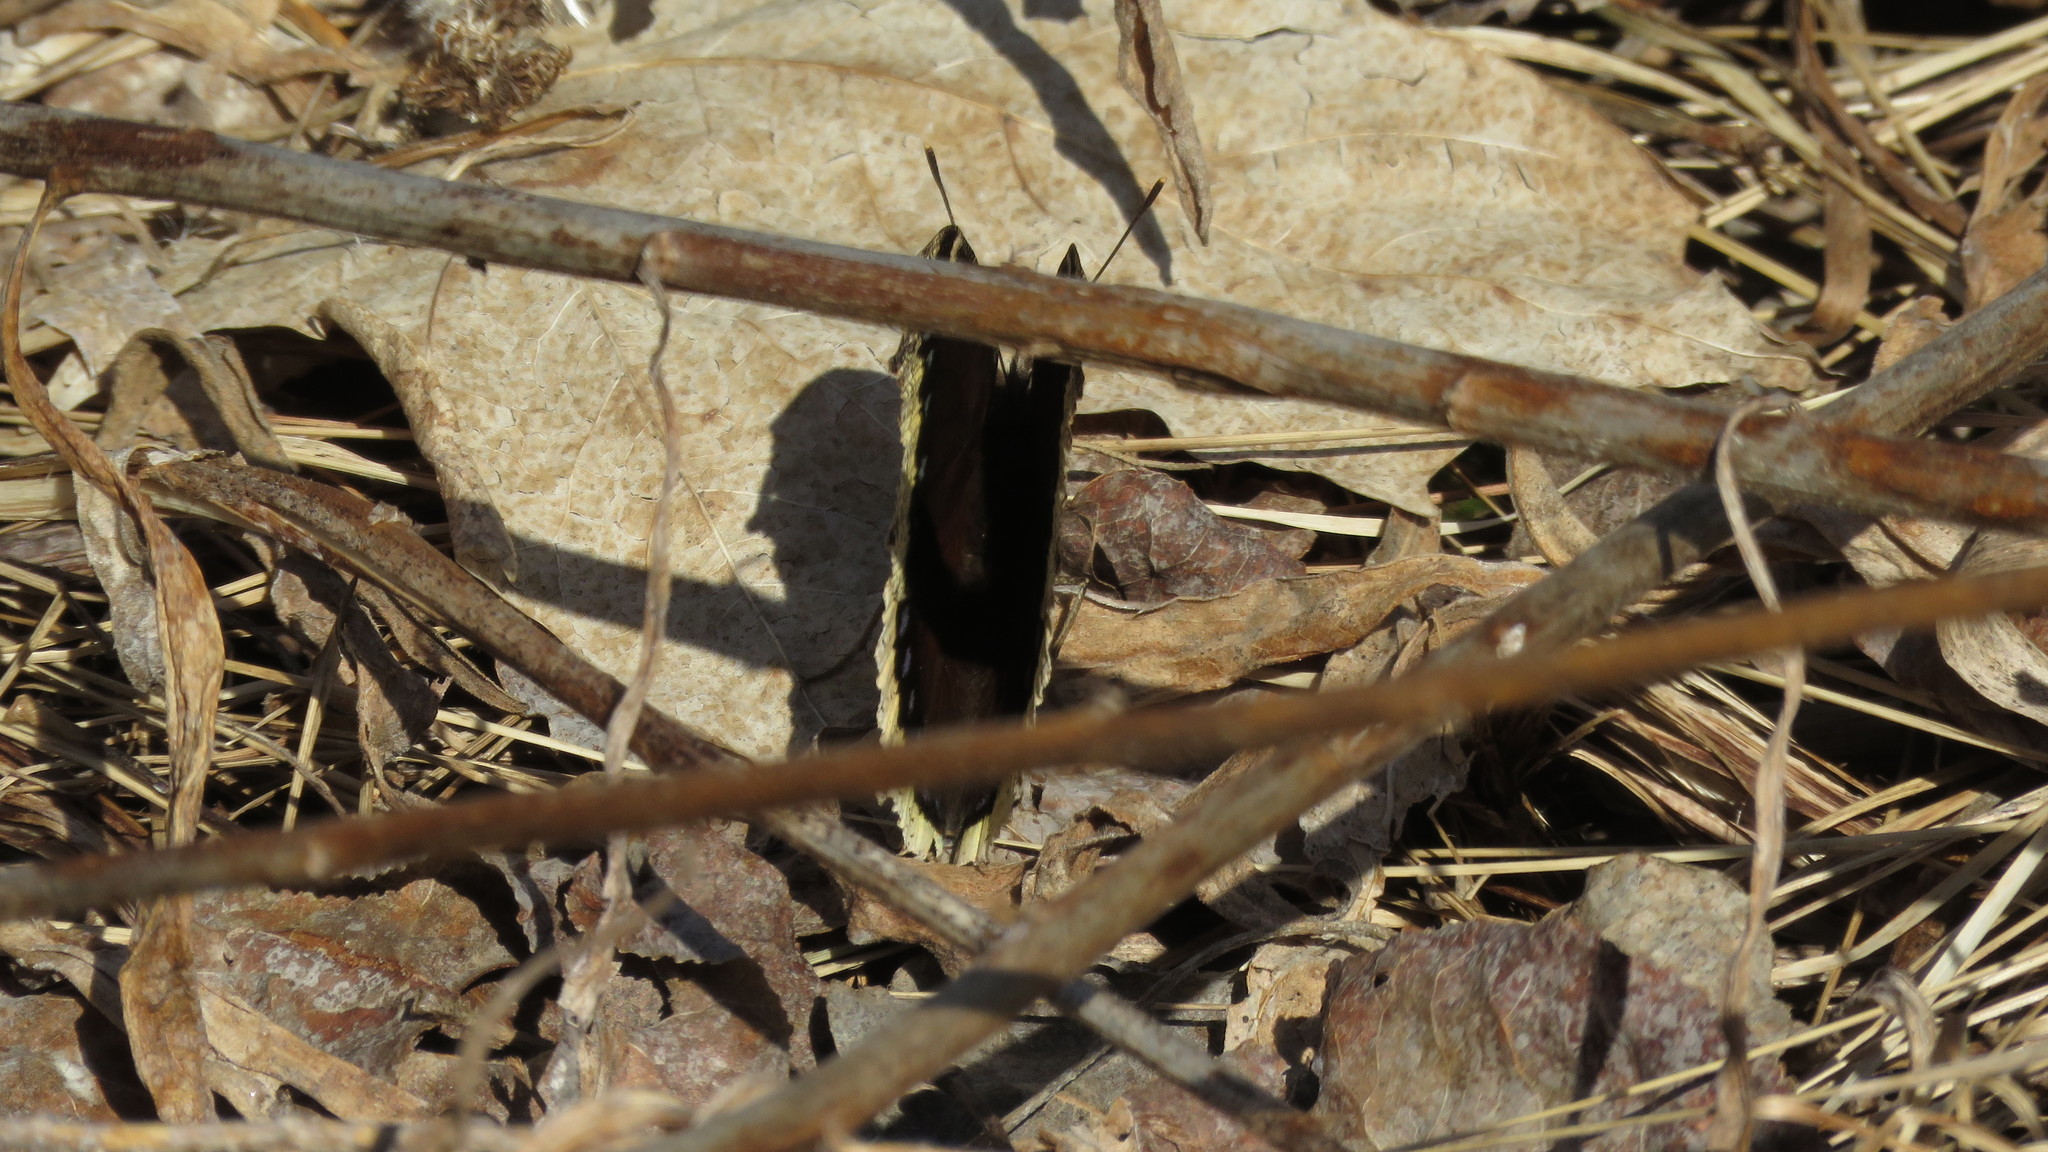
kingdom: Animalia
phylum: Arthropoda
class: Insecta
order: Lepidoptera
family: Nymphalidae
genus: Nymphalis
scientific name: Nymphalis antiopa
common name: Camberwell beauty
